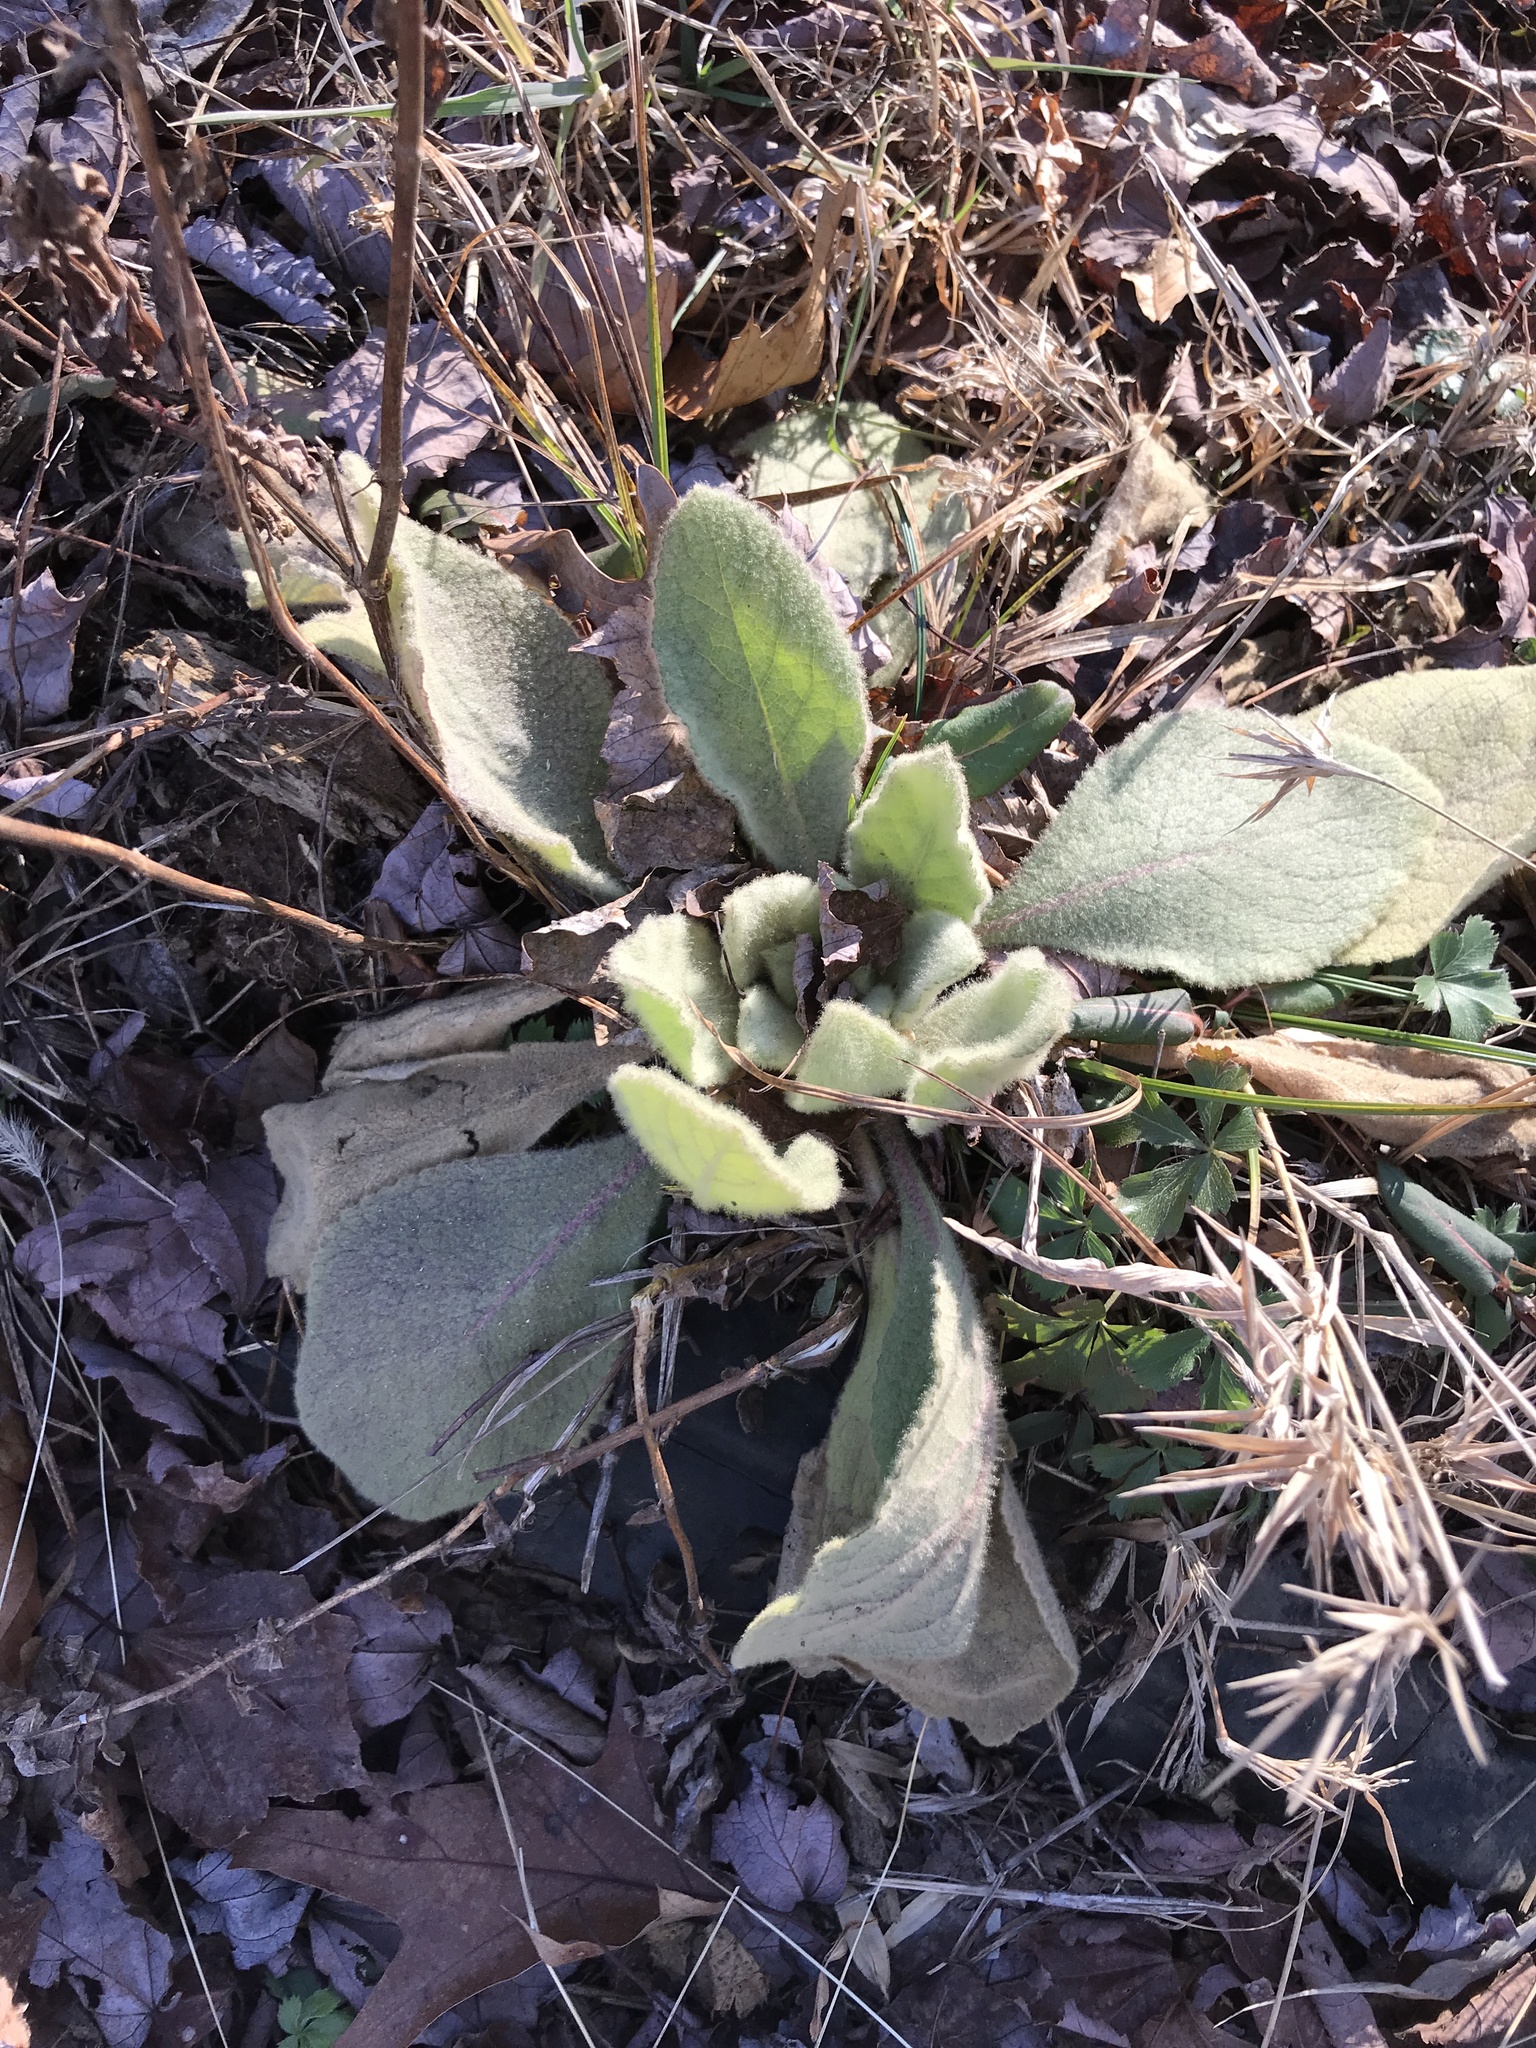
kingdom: Plantae
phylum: Tracheophyta
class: Magnoliopsida
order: Lamiales
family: Scrophulariaceae
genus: Verbascum
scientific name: Verbascum thapsus
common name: Common mullein
